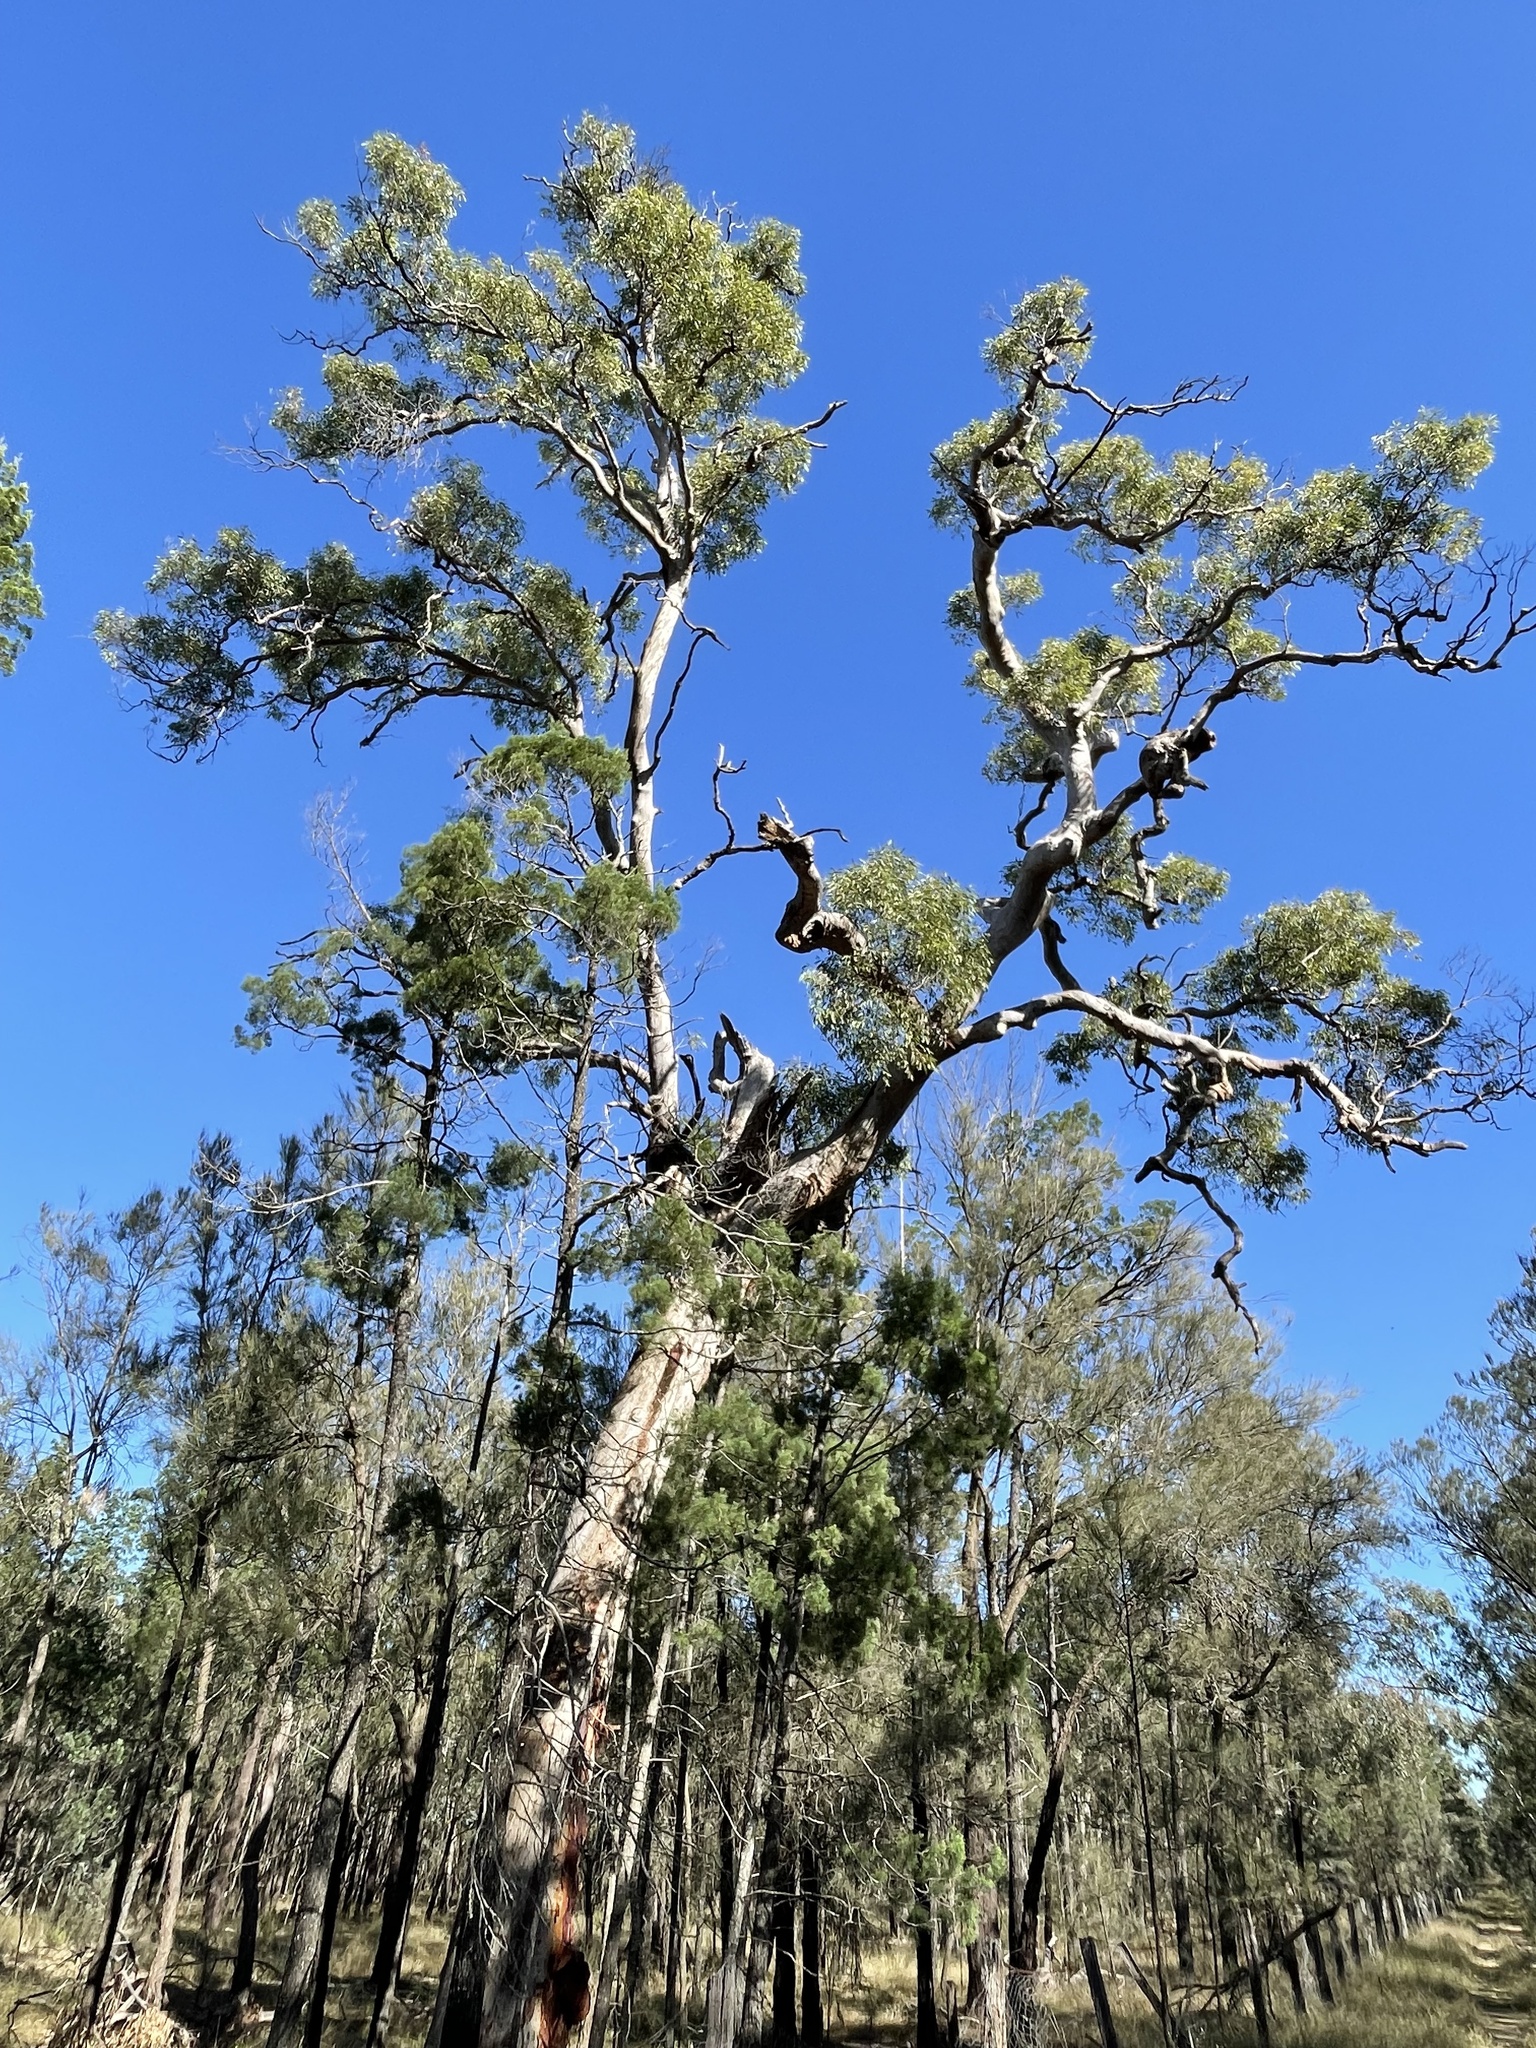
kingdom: Plantae
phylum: Tracheophyta
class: Magnoliopsida
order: Myrtales
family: Myrtaceae
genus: Angophora
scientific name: Angophora leiocarpa
